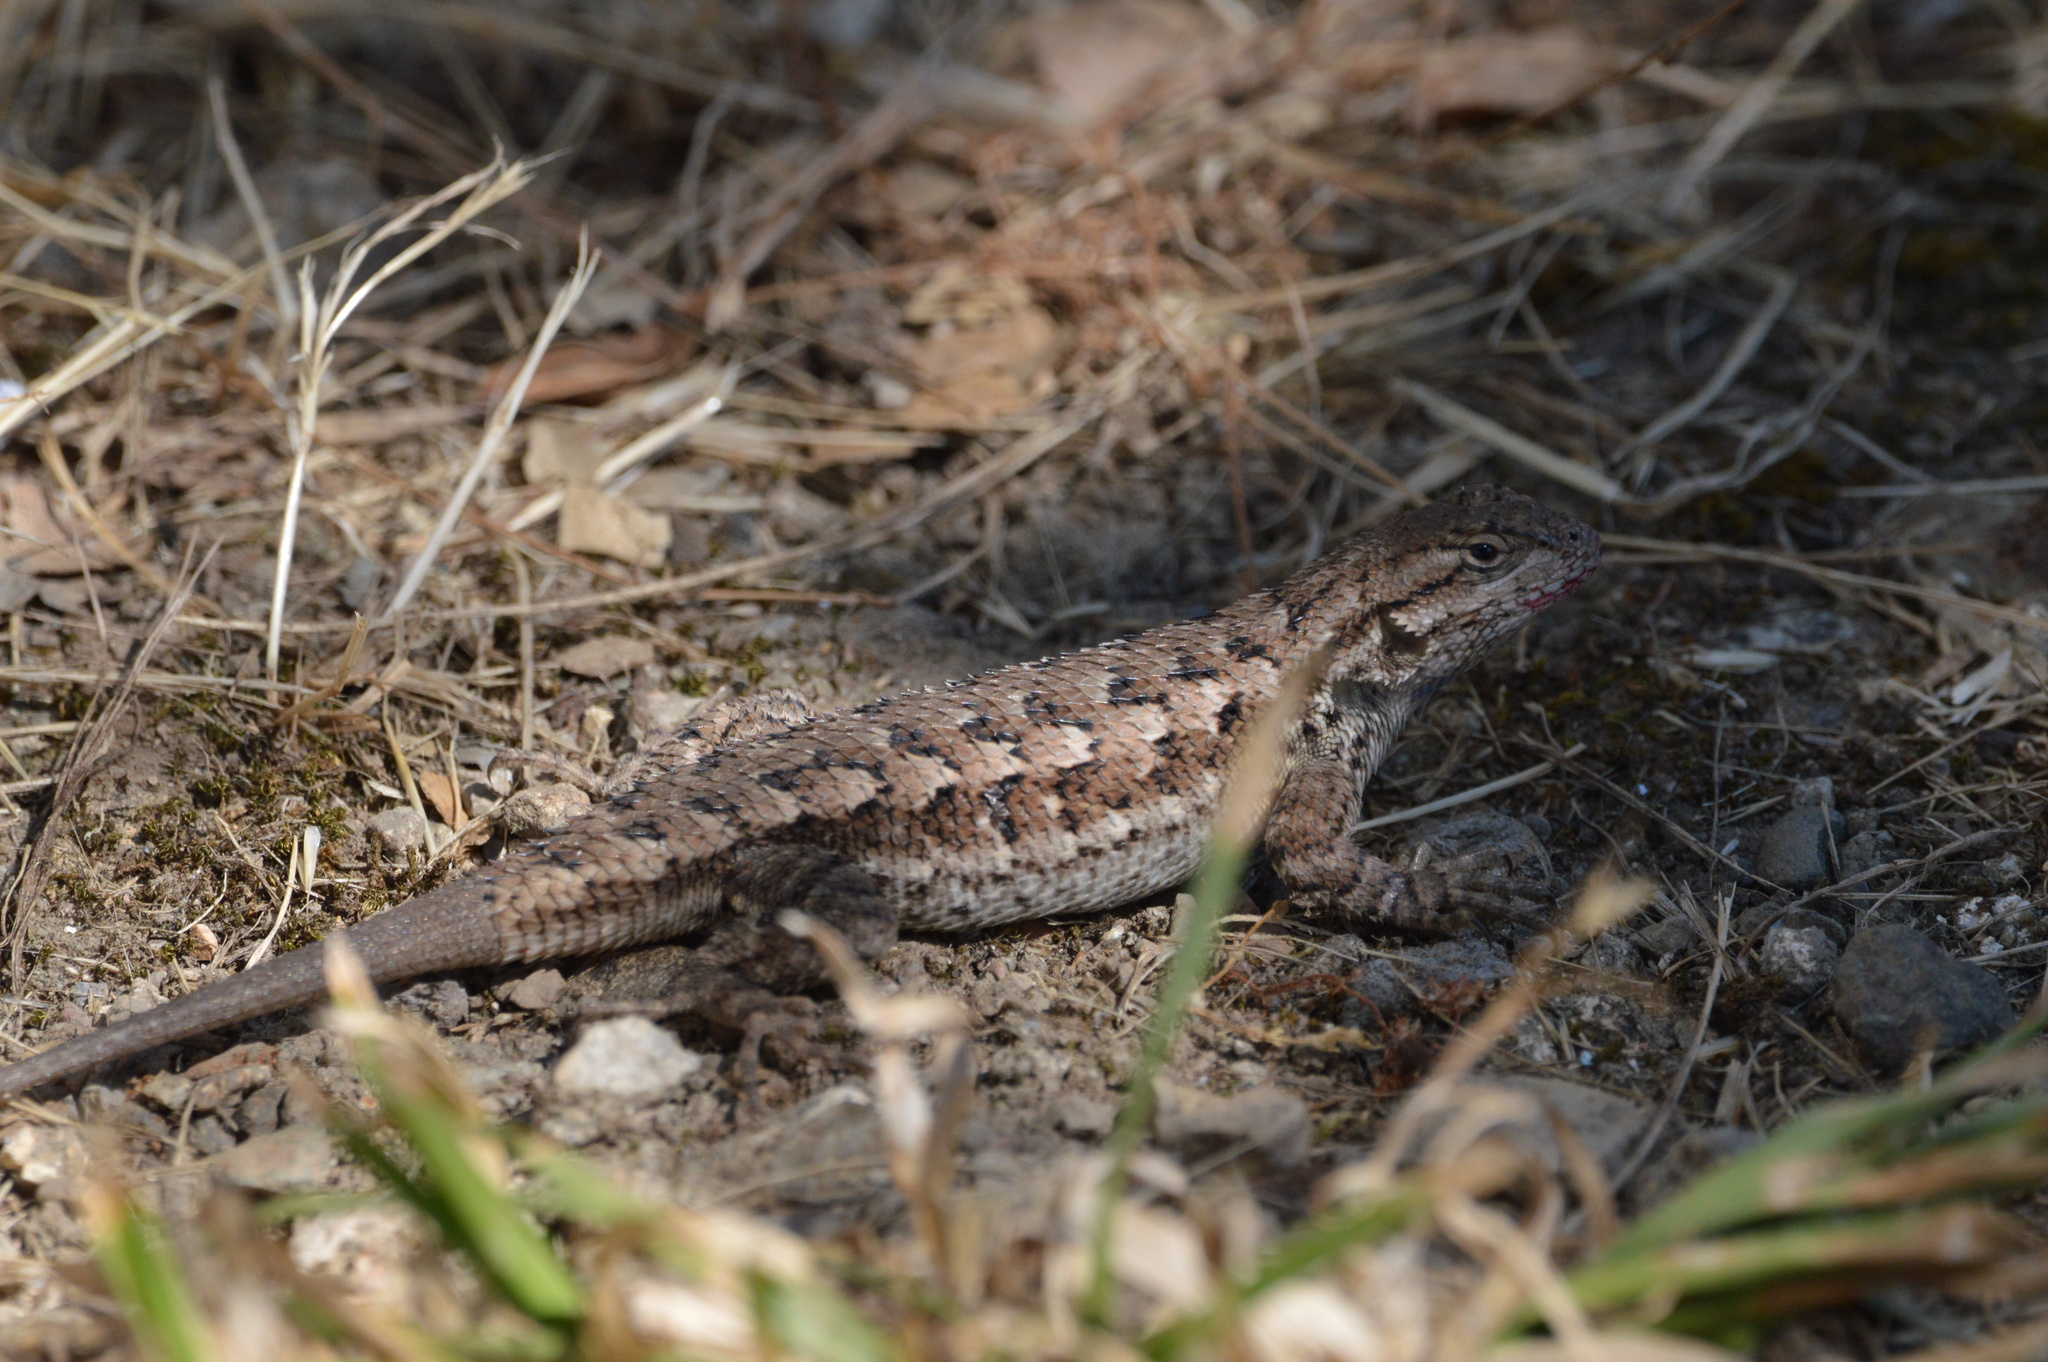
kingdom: Animalia
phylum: Chordata
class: Squamata
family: Phrynosomatidae
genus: Sceloporus
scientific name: Sceloporus occidentalis
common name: Western fence lizard
